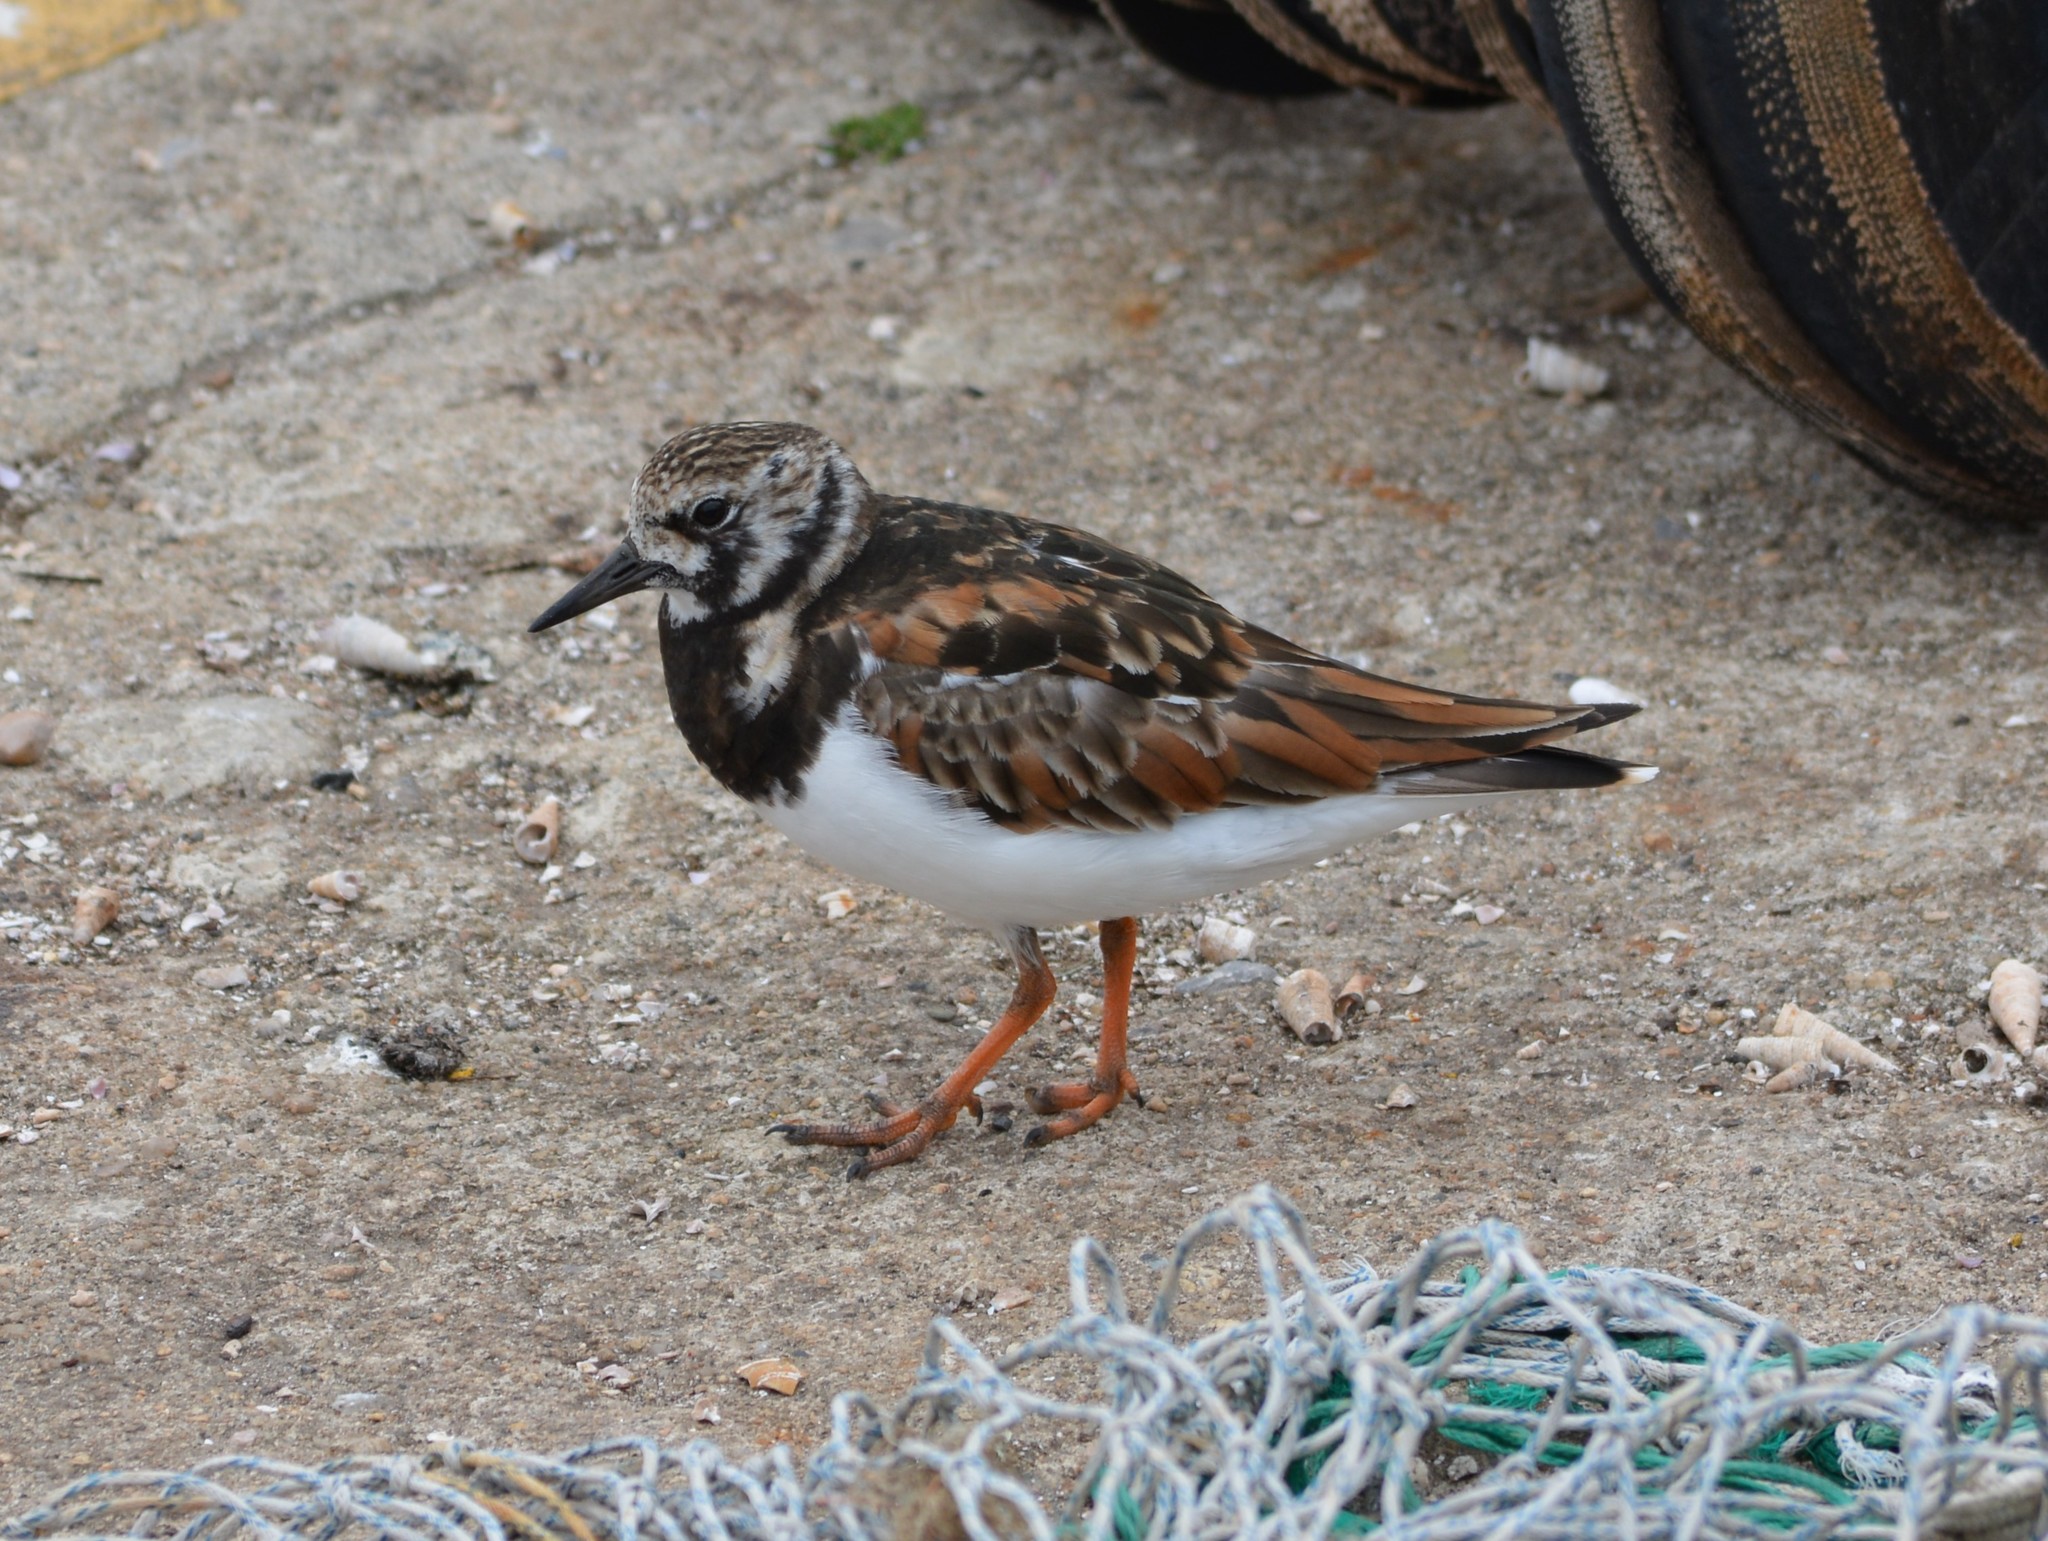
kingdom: Animalia
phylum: Chordata
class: Aves
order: Charadriiformes
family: Scolopacidae
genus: Arenaria
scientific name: Arenaria interpres
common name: Ruddy turnstone
